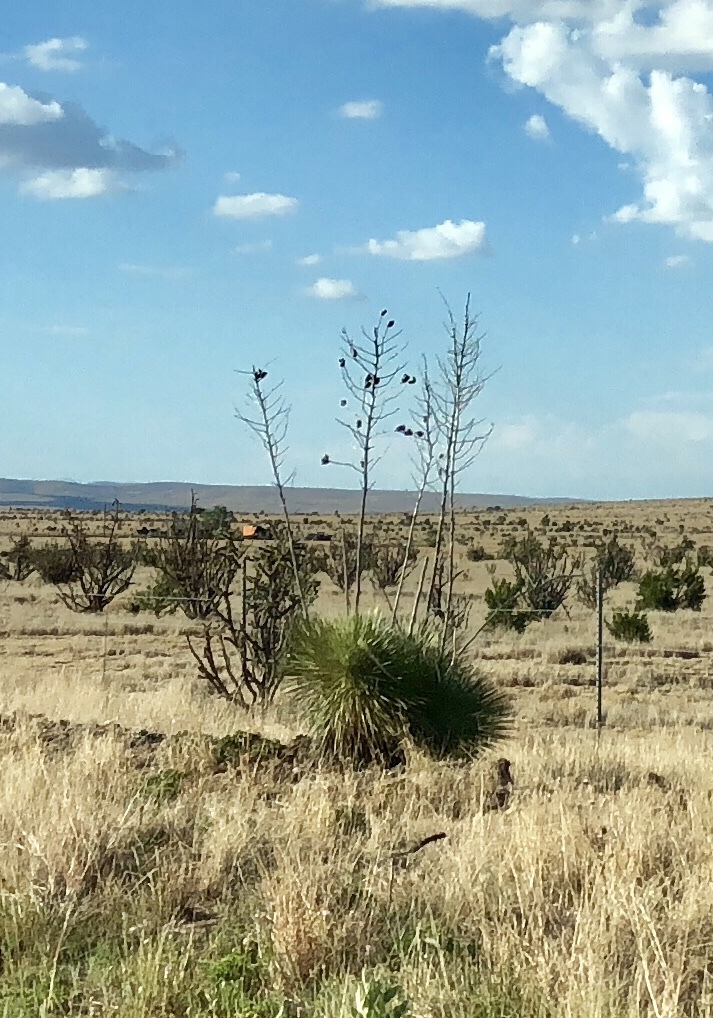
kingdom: Plantae
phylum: Tracheophyta
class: Liliopsida
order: Asparagales
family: Asparagaceae
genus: Yucca
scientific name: Yucca elata
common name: Palmella
